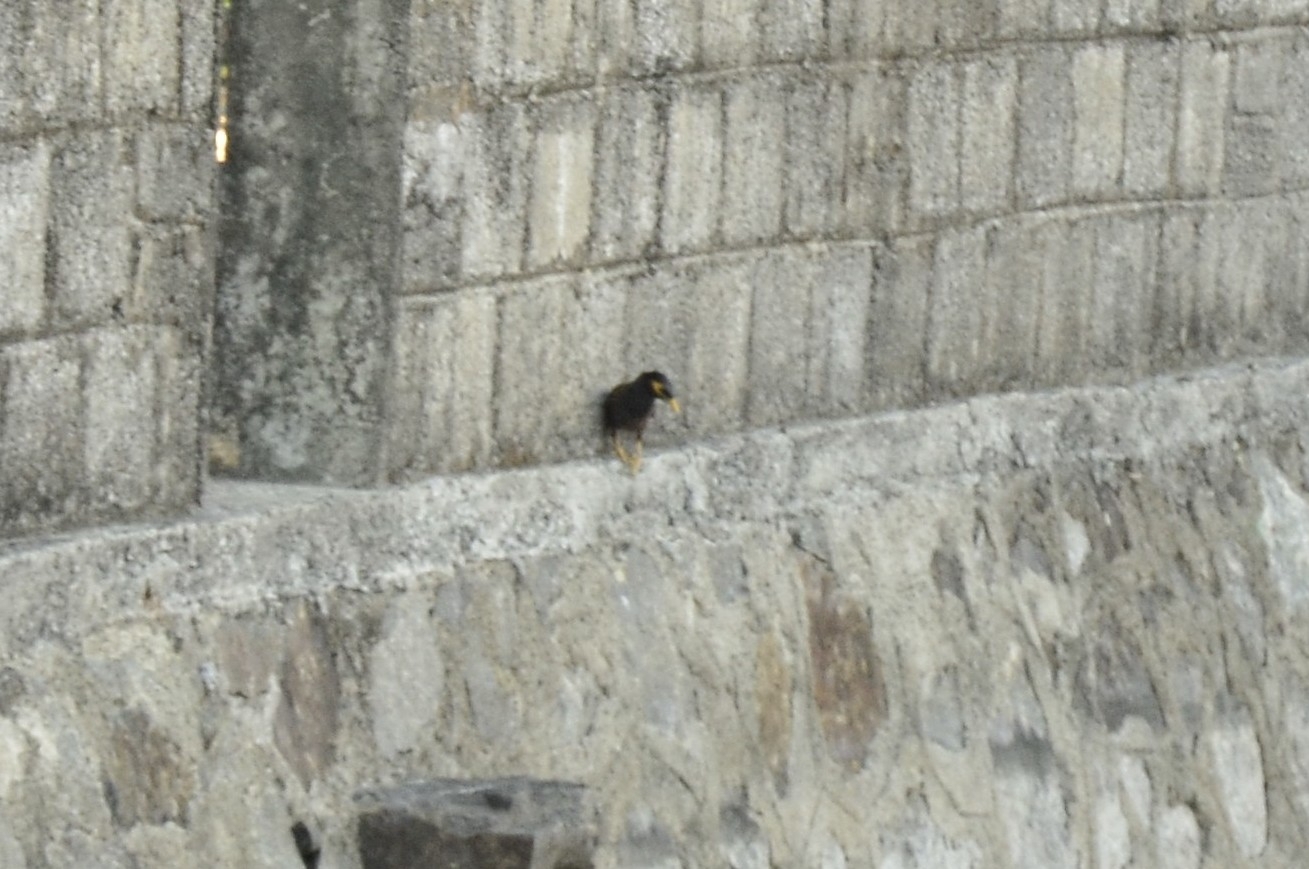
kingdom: Animalia
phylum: Chordata
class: Aves
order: Passeriformes
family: Sturnidae
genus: Acridotheres
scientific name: Acridotheres tristis
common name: Common myna
